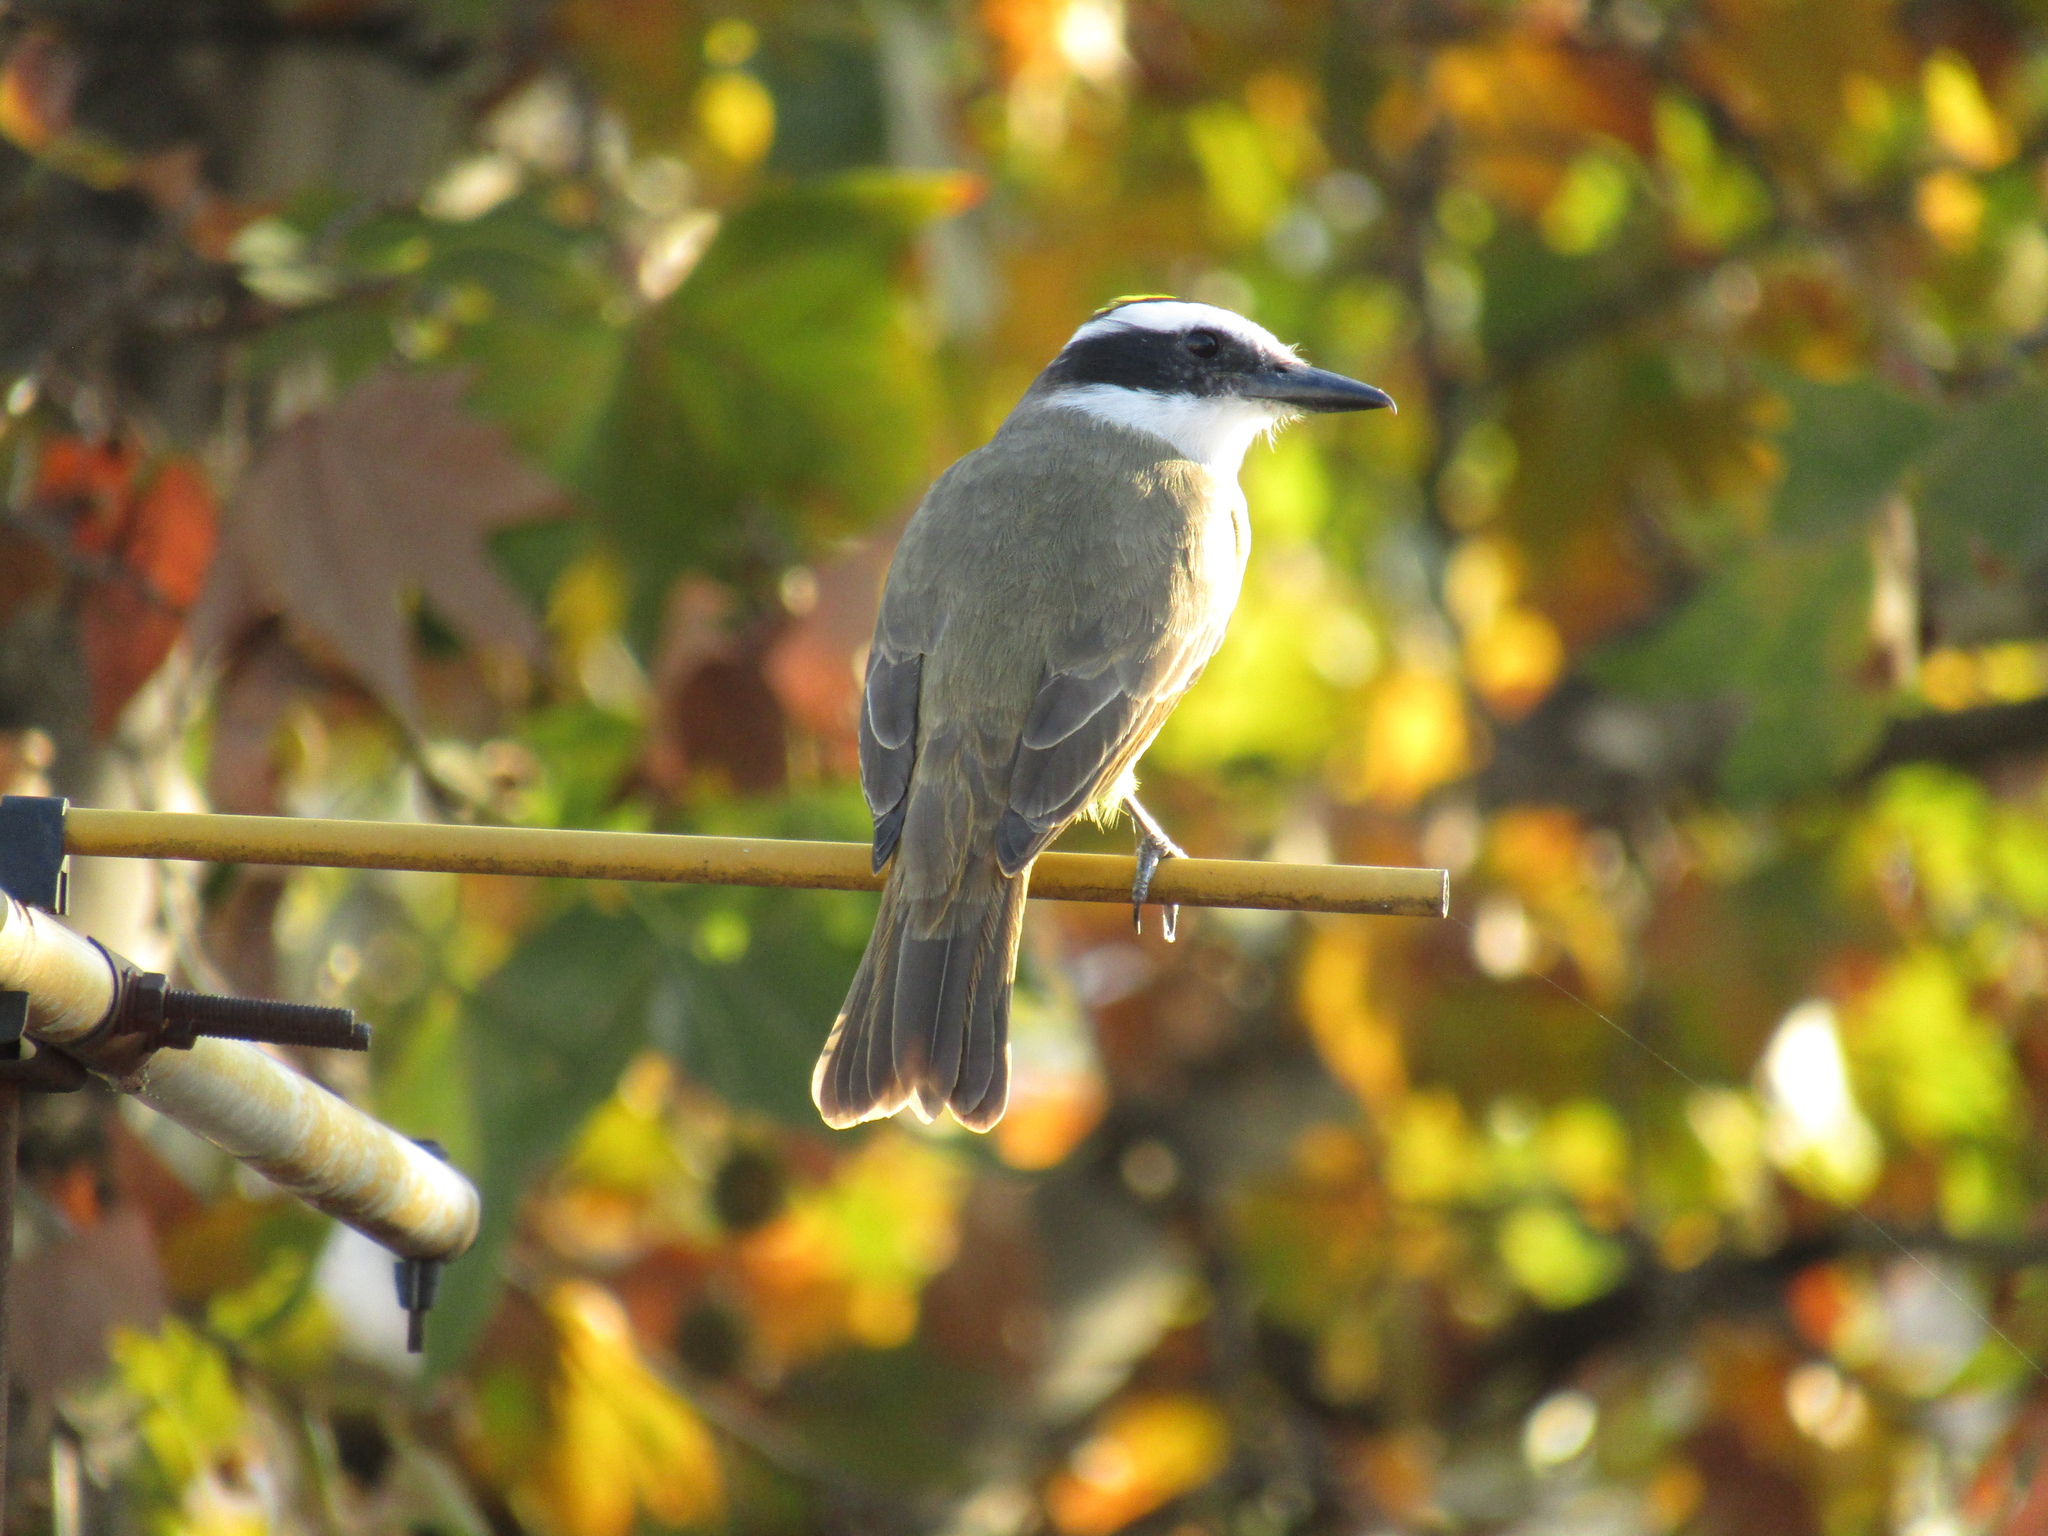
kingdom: Animalia
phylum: Chordata
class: Aves
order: Passeriformes
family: Tyrannidae
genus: Pitangus
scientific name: Pitangus sulphuratus
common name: Great kiskadee
